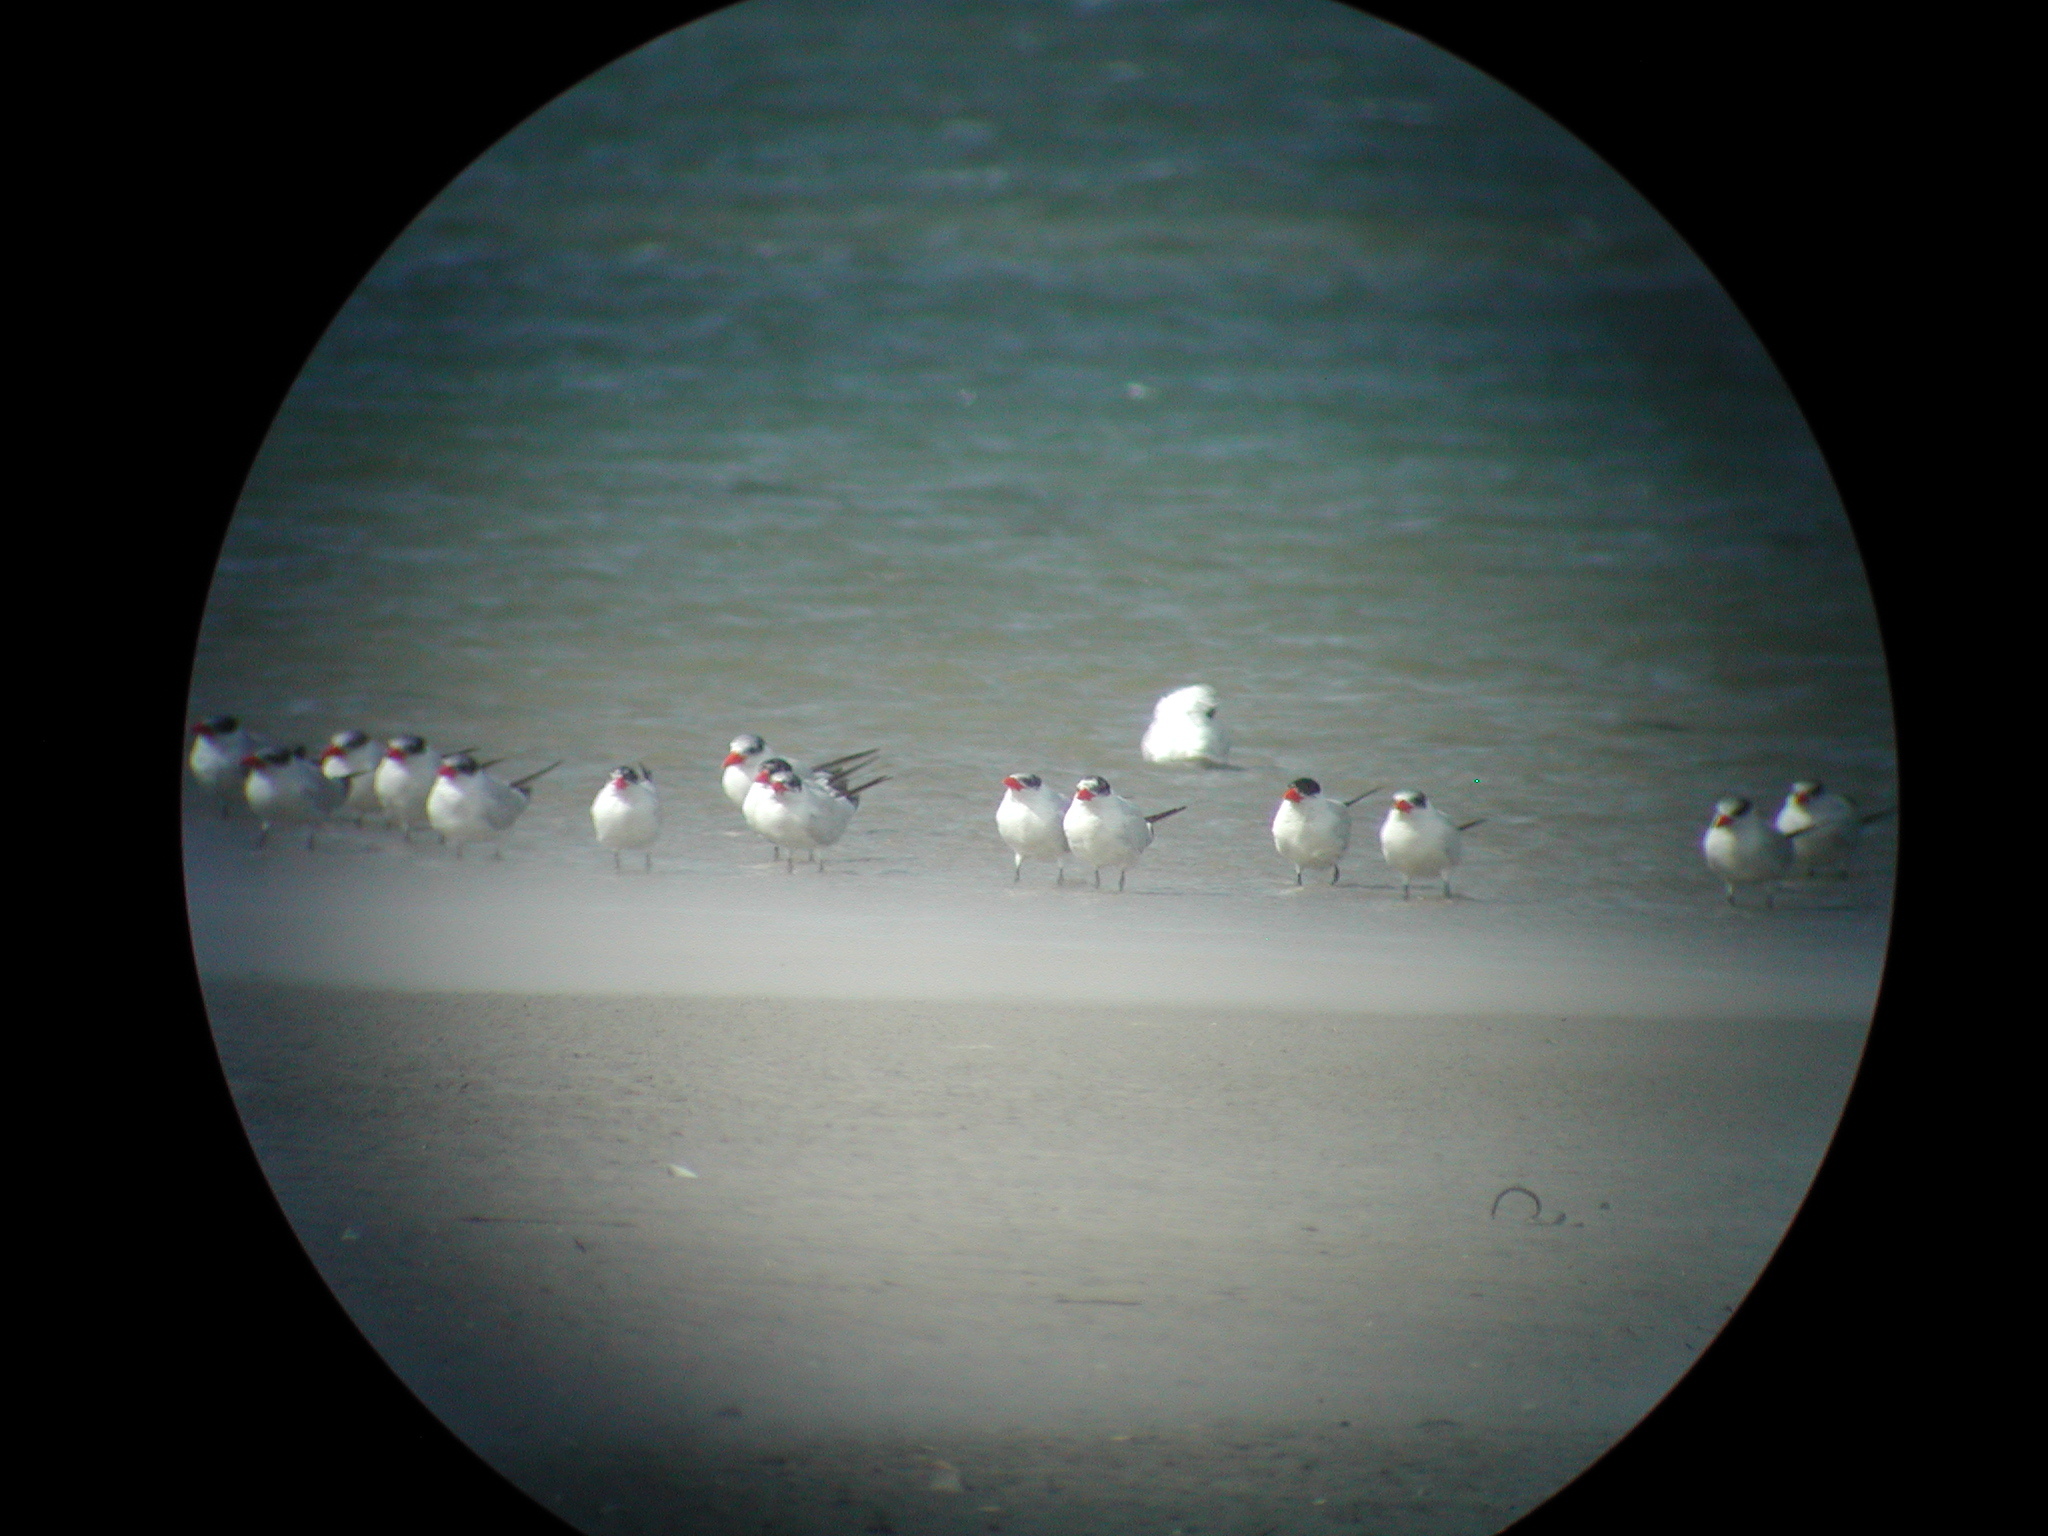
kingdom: Animalia
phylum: Chordata
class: Aves
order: Charadriiformes
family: Laridae
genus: Hydroprogne
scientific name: Hydroprogne caspia
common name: Caspian tern
